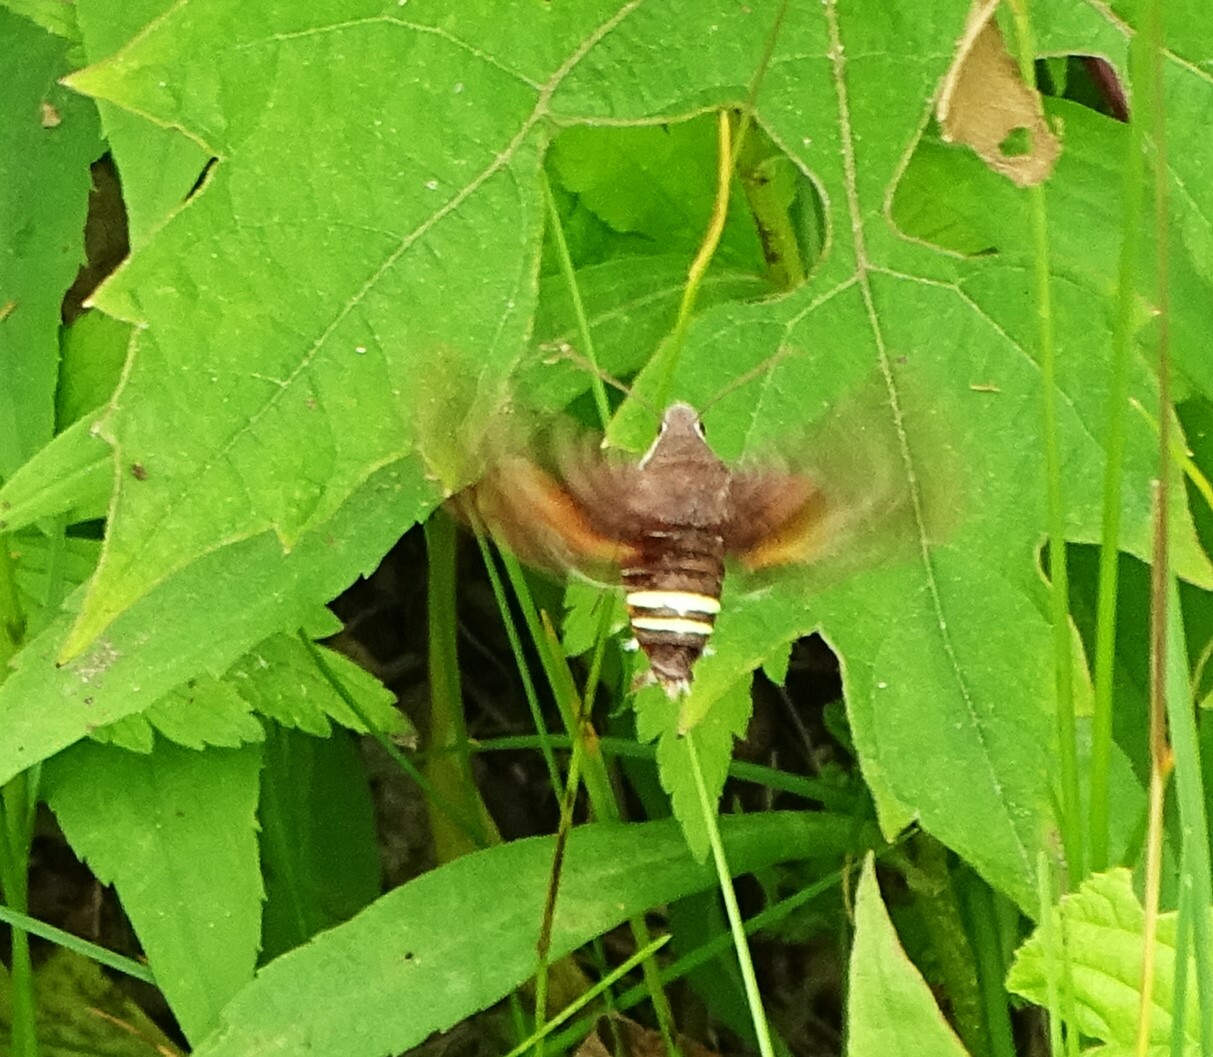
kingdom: Animalia
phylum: Arthropoda
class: Insecta
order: Lepidoptera
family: Sphingidae
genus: Amphion
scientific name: Amphion floridensis
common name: Nessus sphinx
